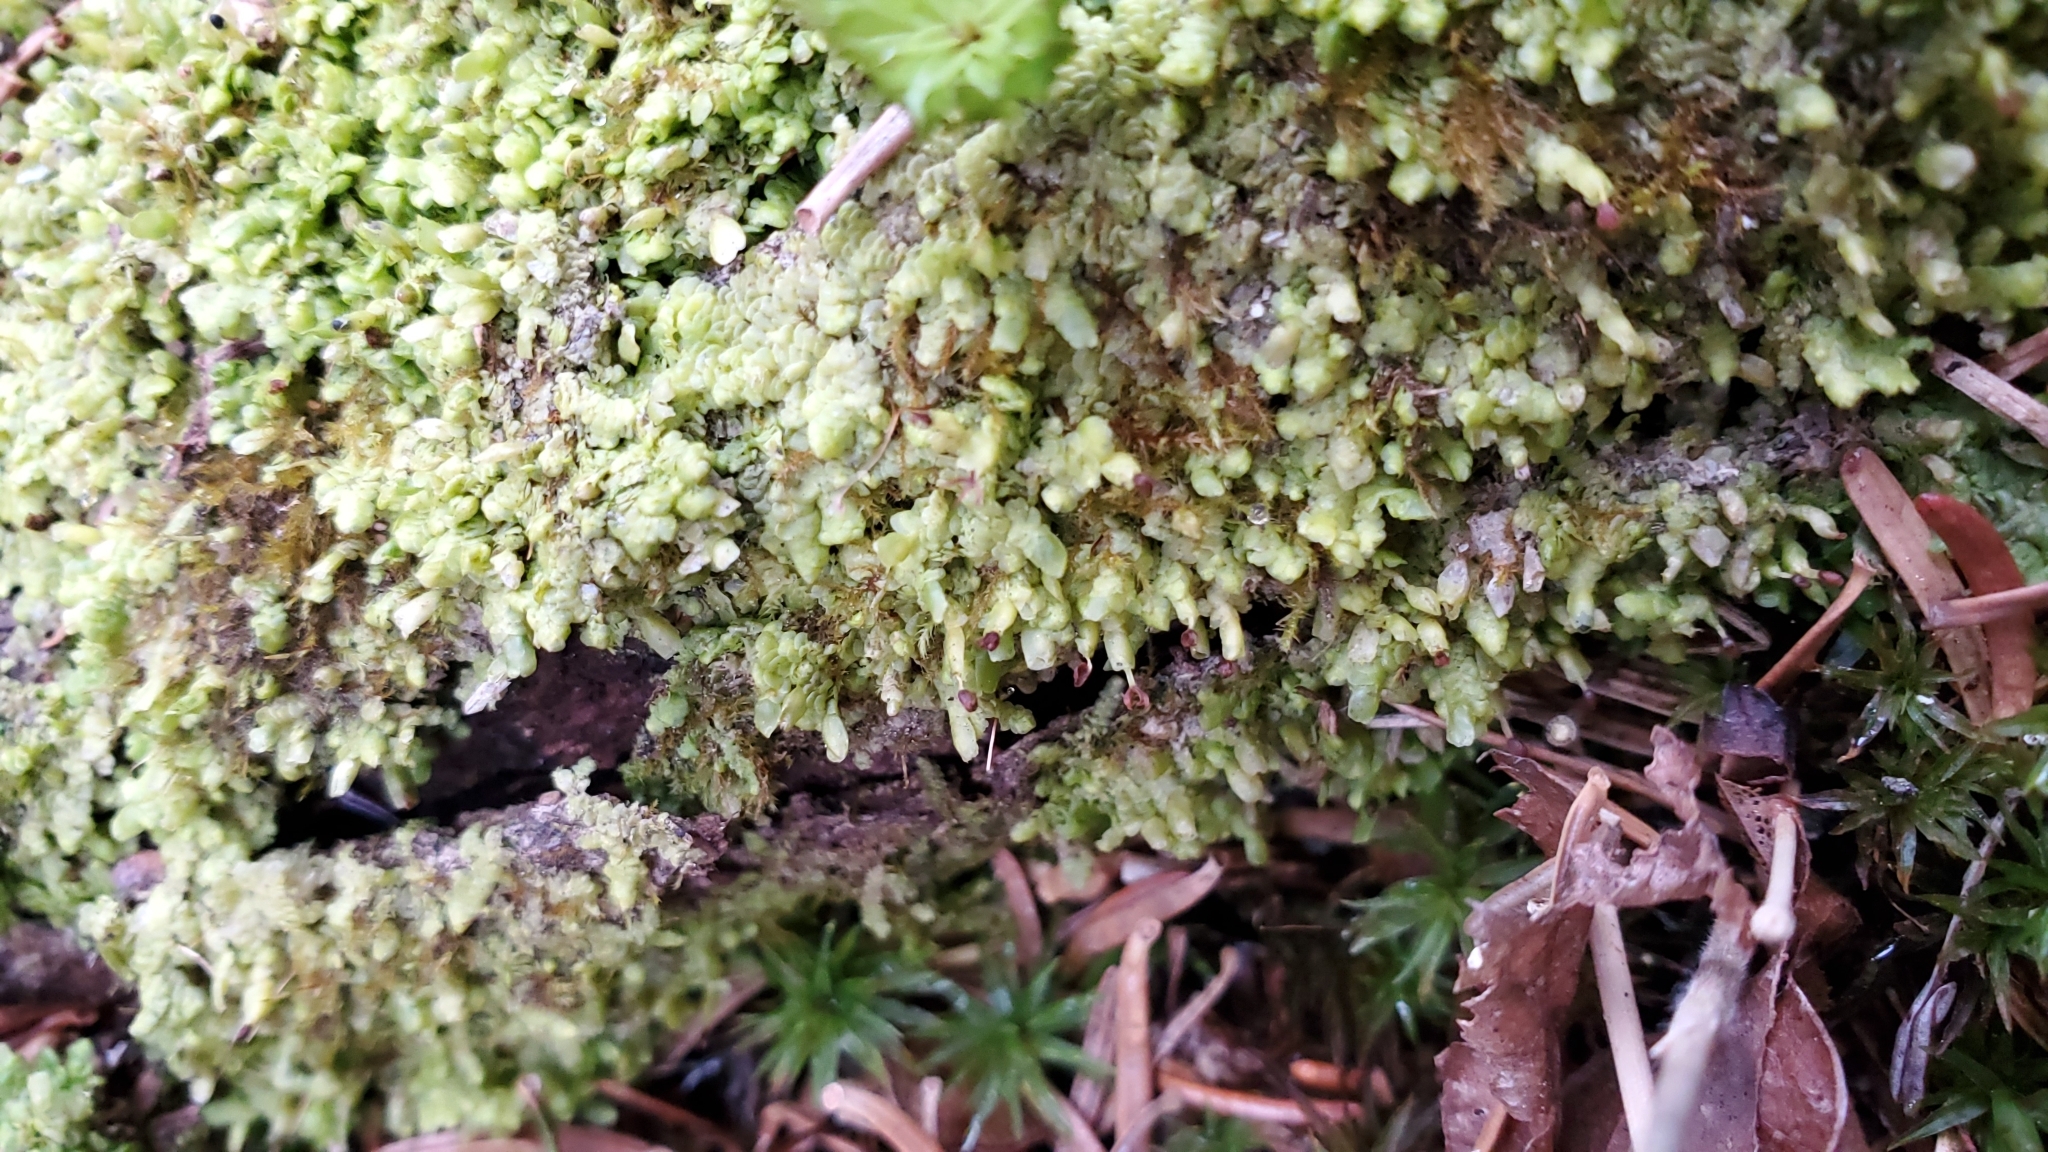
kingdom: Plantae
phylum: Marchantiophyta
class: Jungermanniopsida
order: Porellales
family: Radulaceae
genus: Radula
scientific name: Radula complanata
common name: Flat-leaved scalewort
